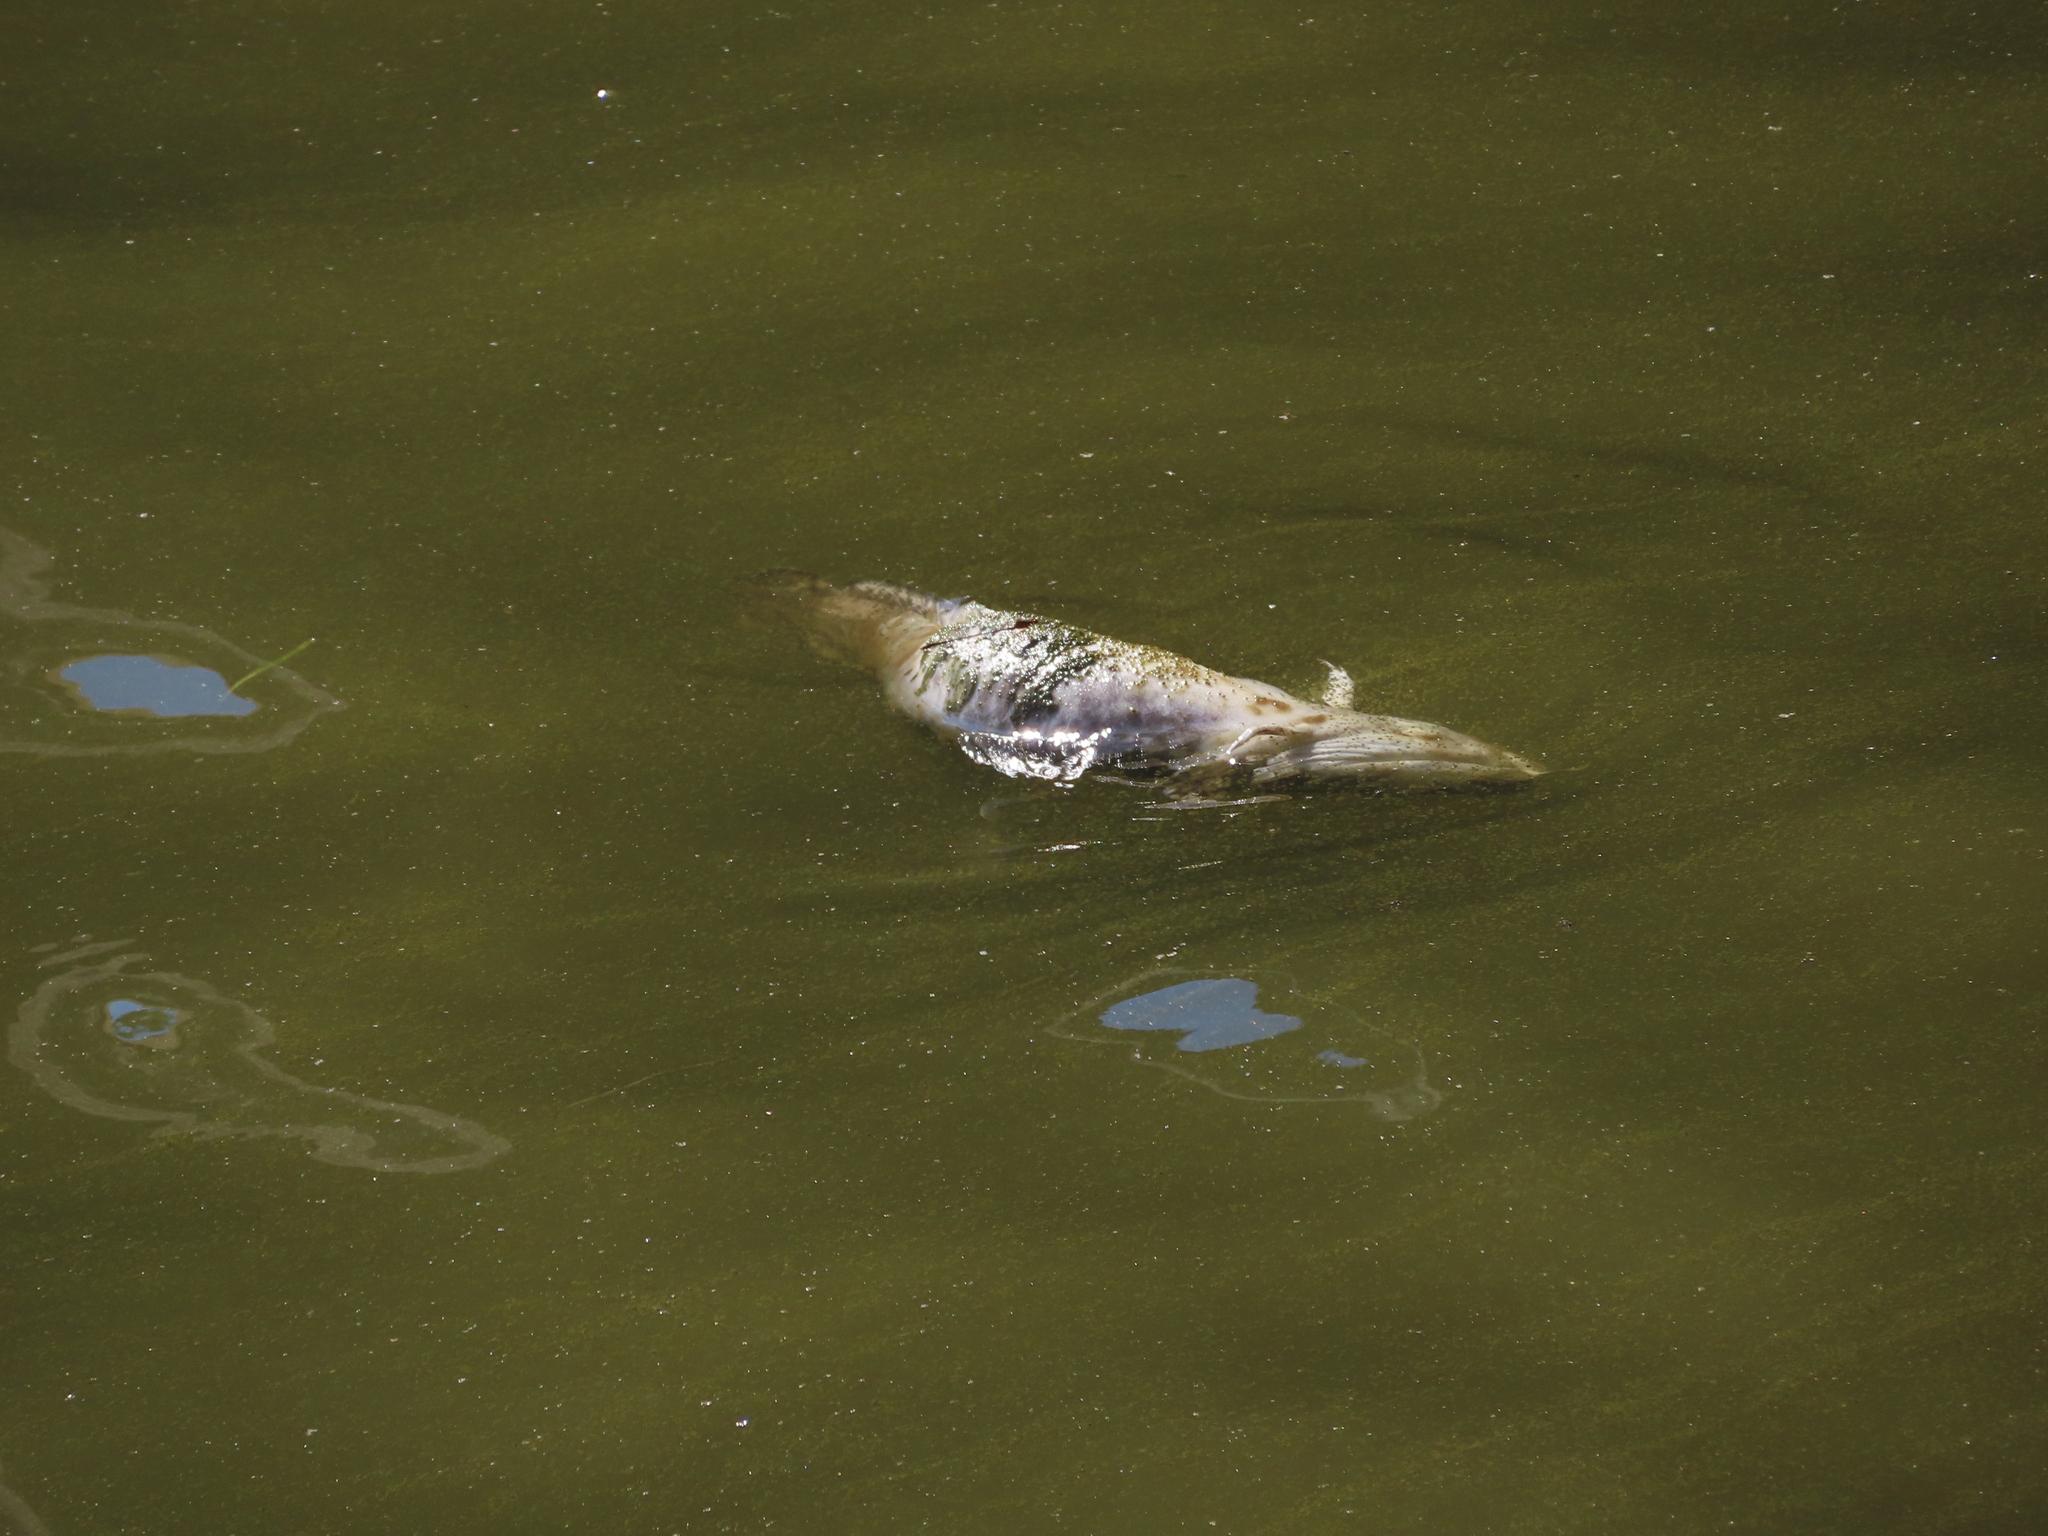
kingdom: Animalia
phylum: Chordata
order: Gadiformes
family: Lotidae
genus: Lota
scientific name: Lota lota
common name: Burbot
